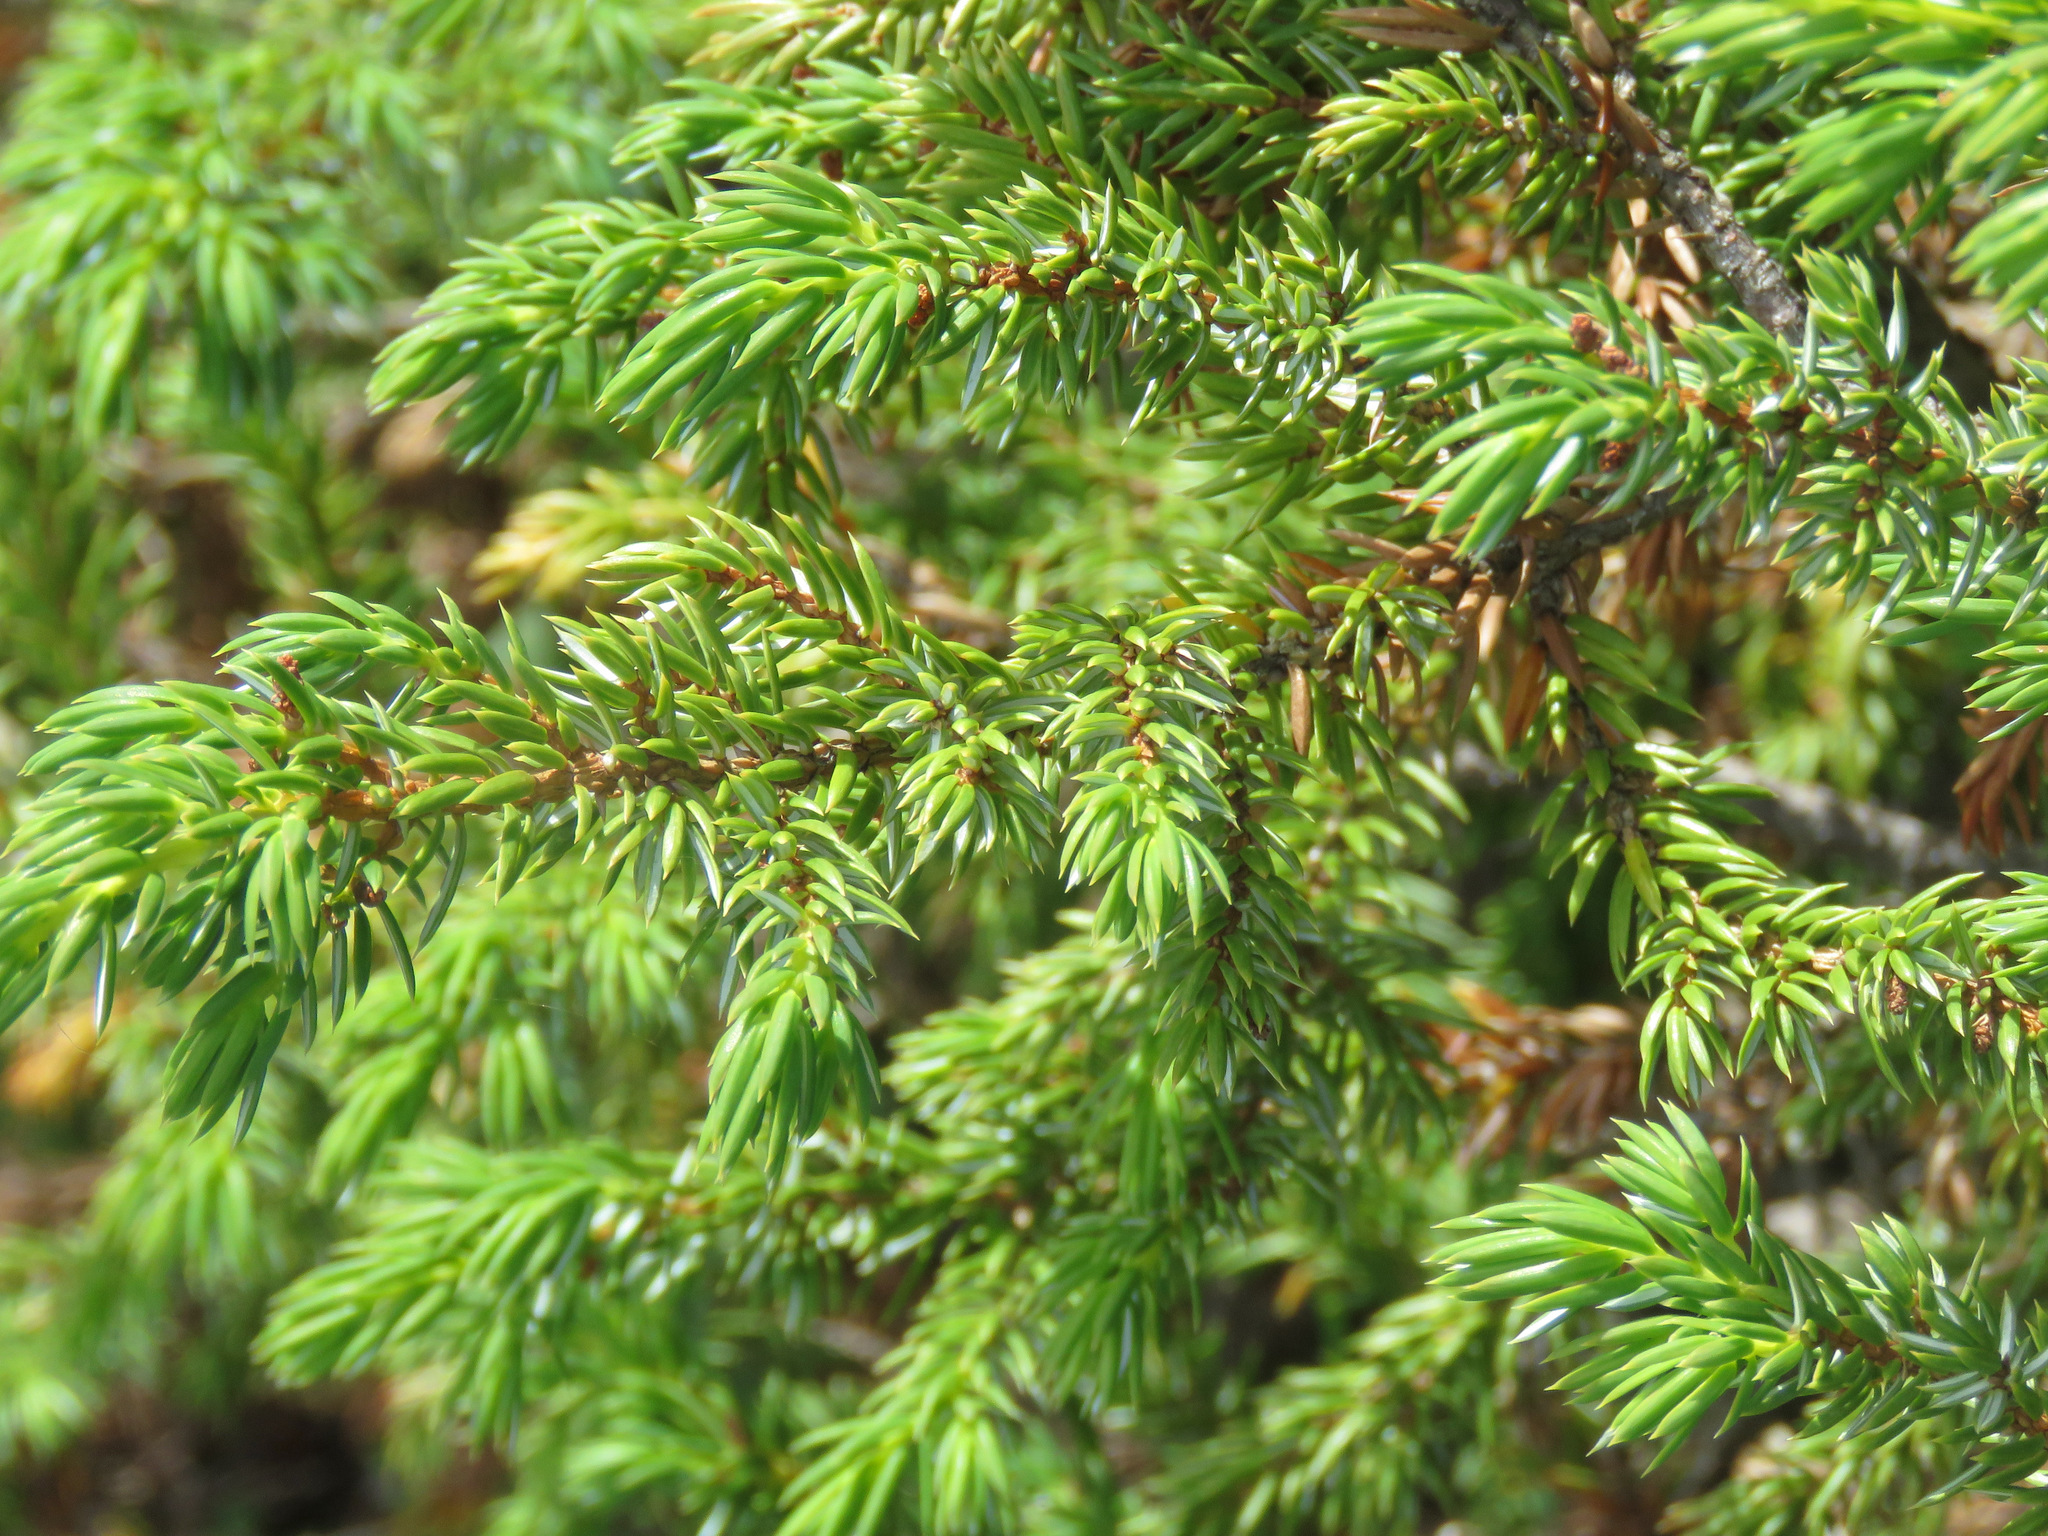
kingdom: Plantae
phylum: Tracheophyta
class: Pinopsida
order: Pinales
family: Cupressaceae
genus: Juniperus
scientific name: Juniperus communis
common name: Common juniper
